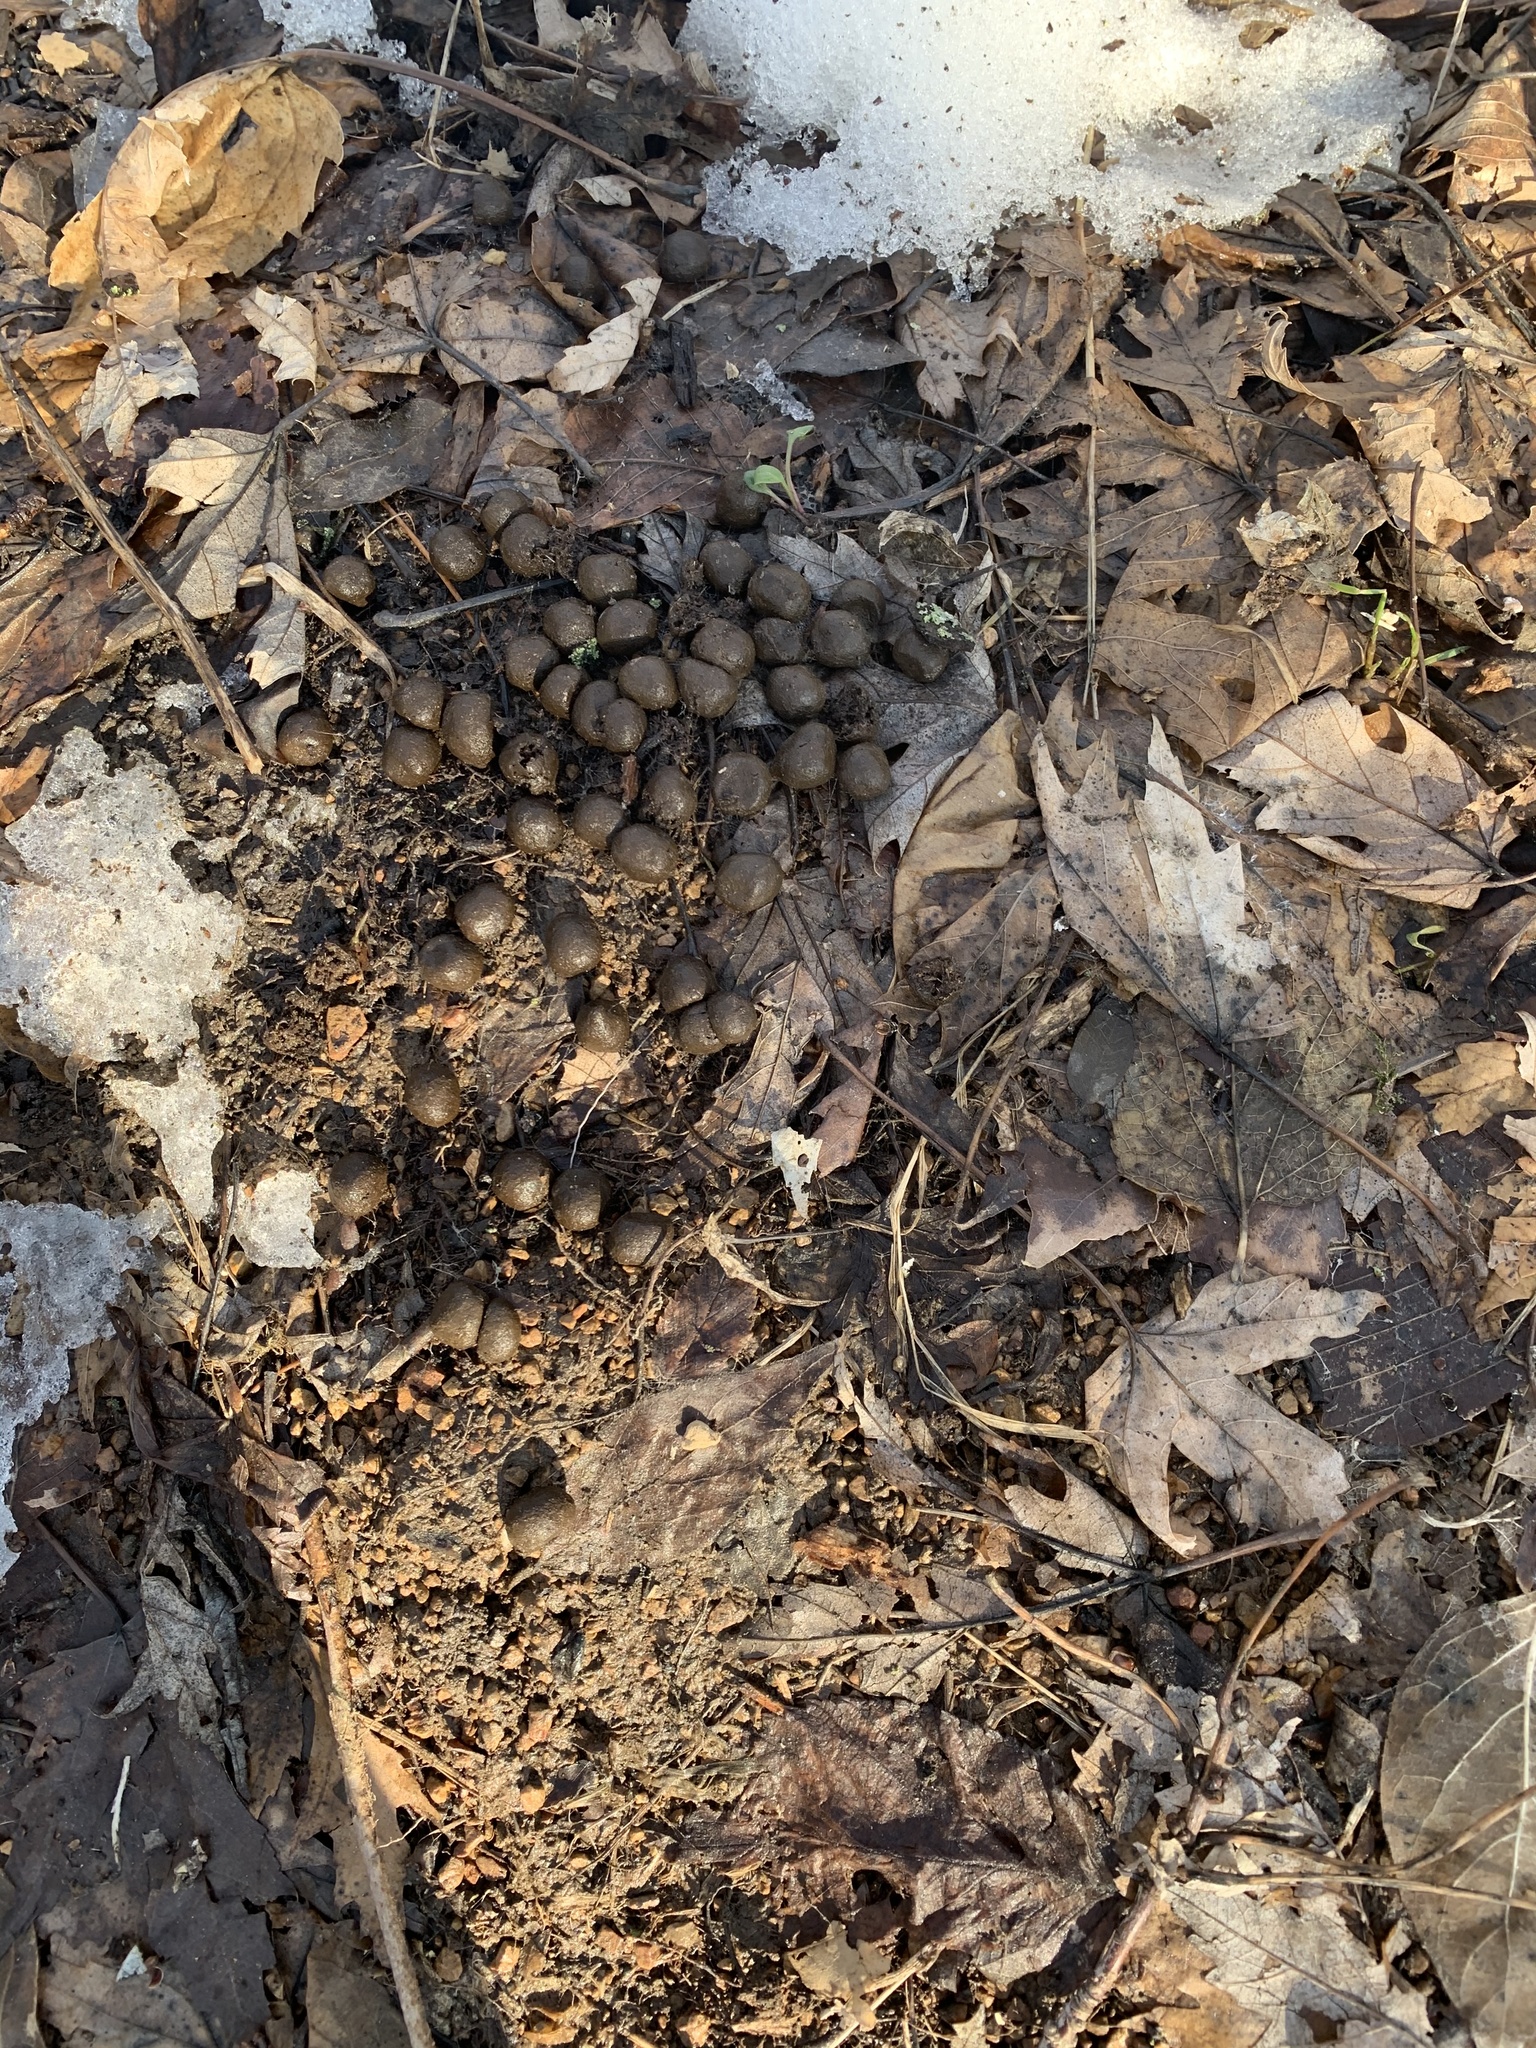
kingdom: Animalia
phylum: Chordata
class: Mammalia
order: Artiodactyla
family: Cervidae
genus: Odocoileus
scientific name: Odocoileus virginianus
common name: White-tailed deer
